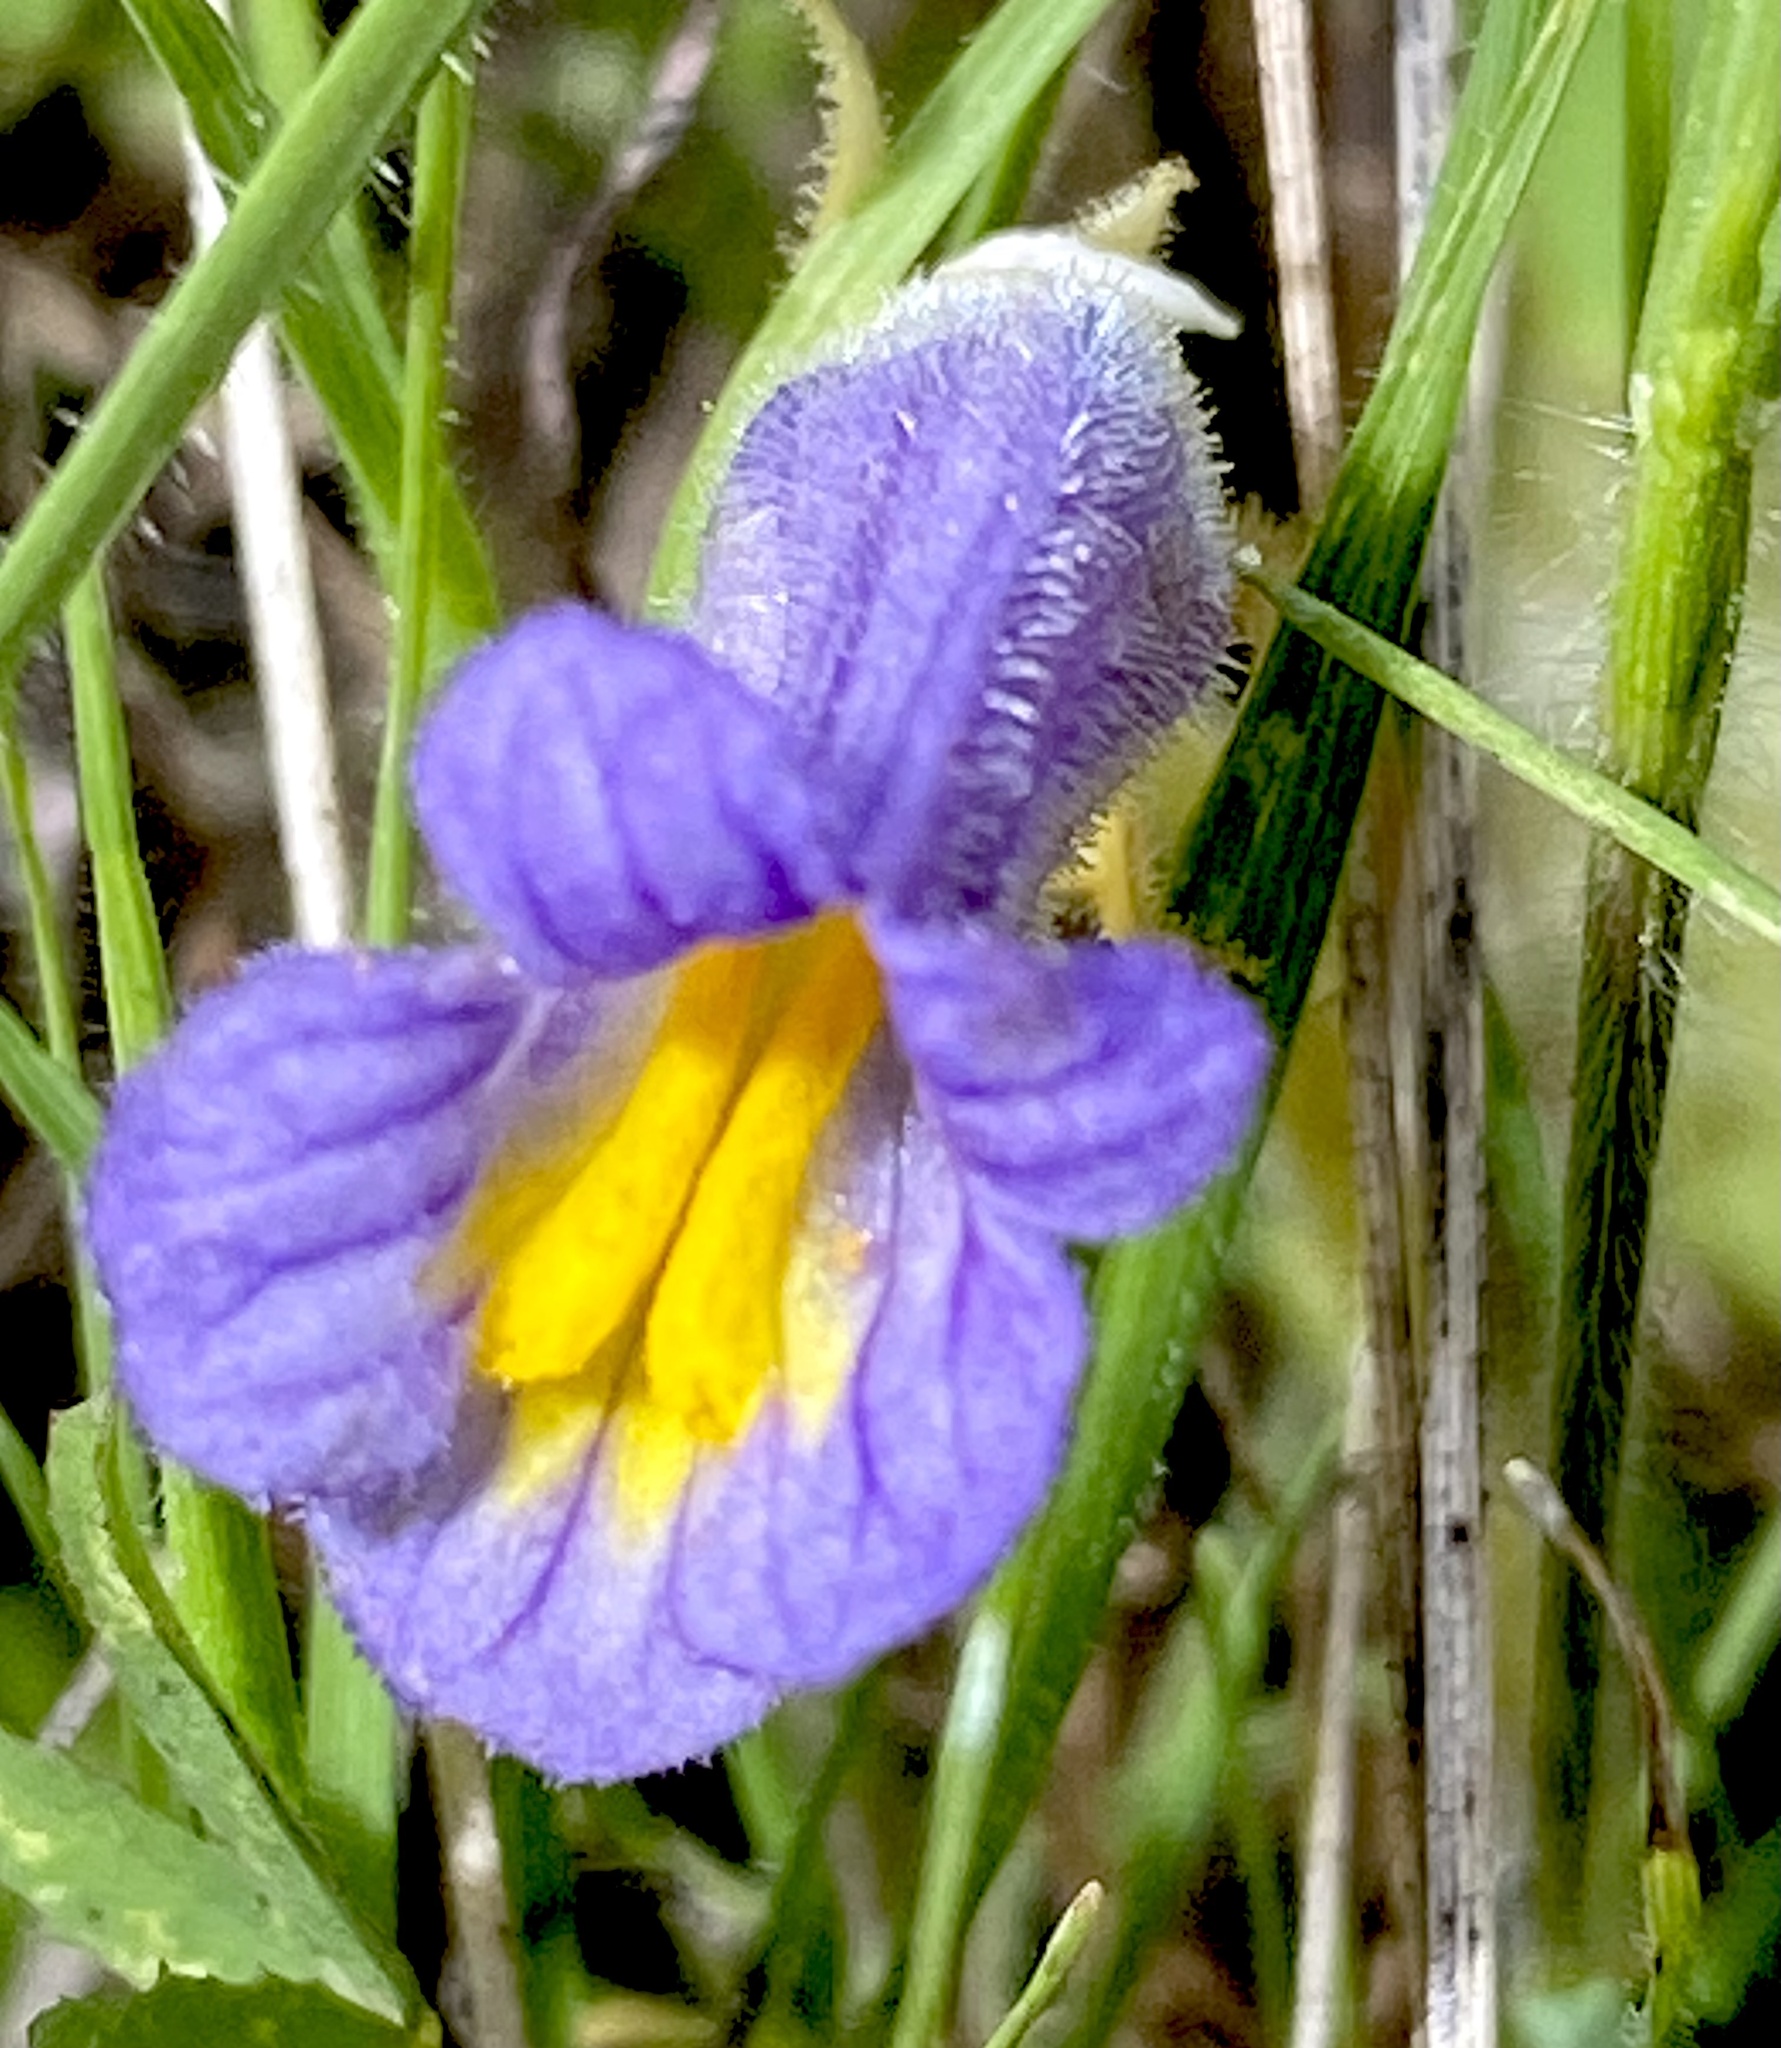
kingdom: Plantae
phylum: Tracheophyta
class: Magnoliopsida
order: Lamiales
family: Orobanchaceae
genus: Aphyllon
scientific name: Aphyllon uniflorum
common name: One-flowered broomrape
